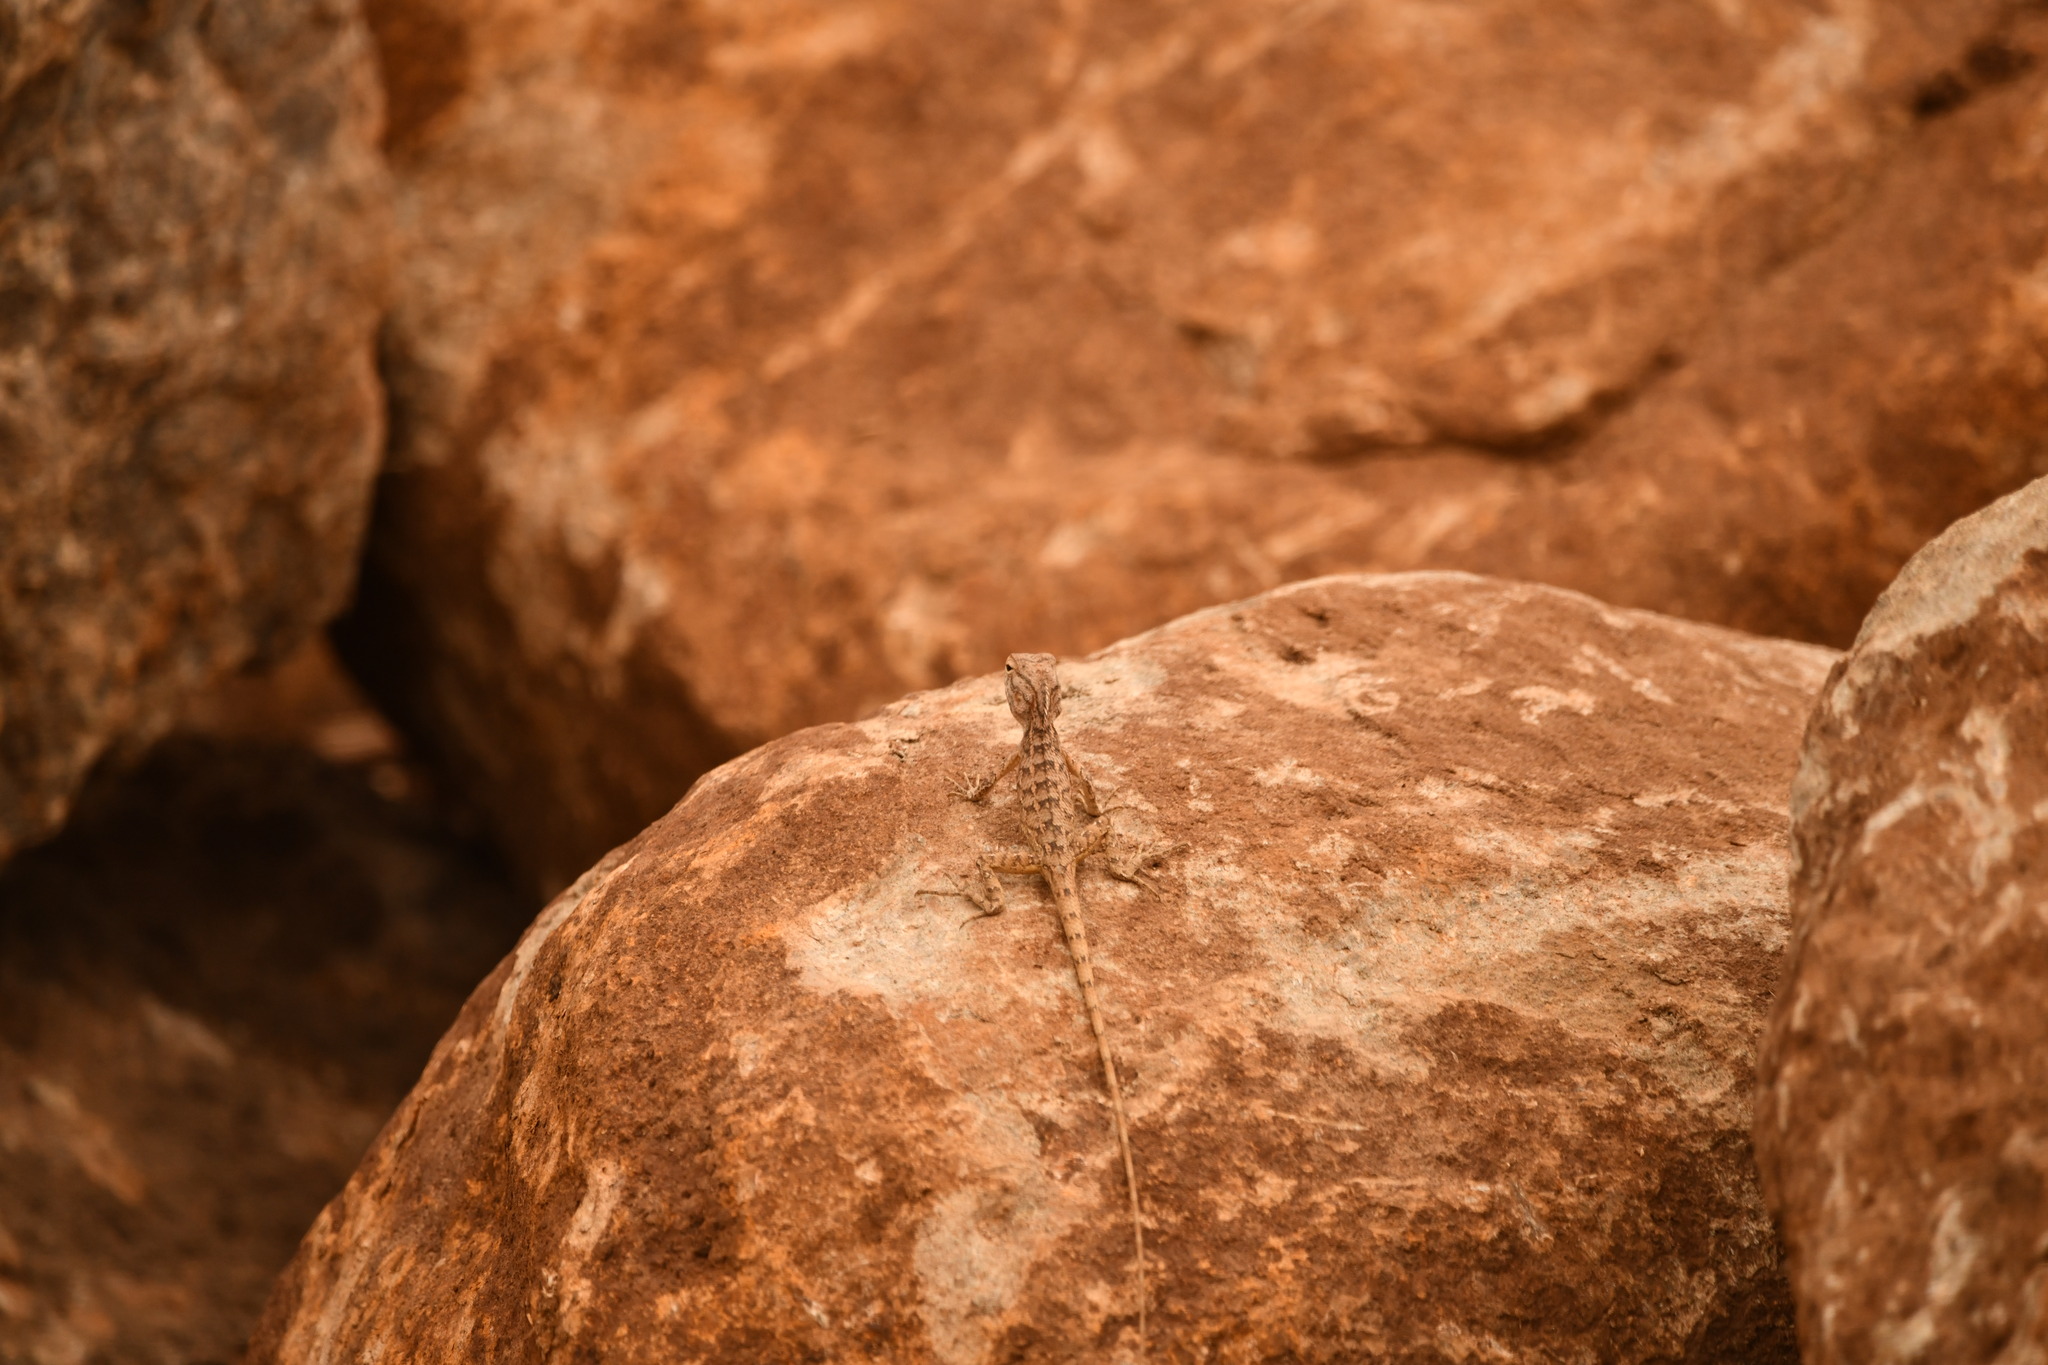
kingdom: Animalia
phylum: Chordata
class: Squamata
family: Agamidae
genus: Calotes
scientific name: Calotes versicolor
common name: Oriental garden lizard
